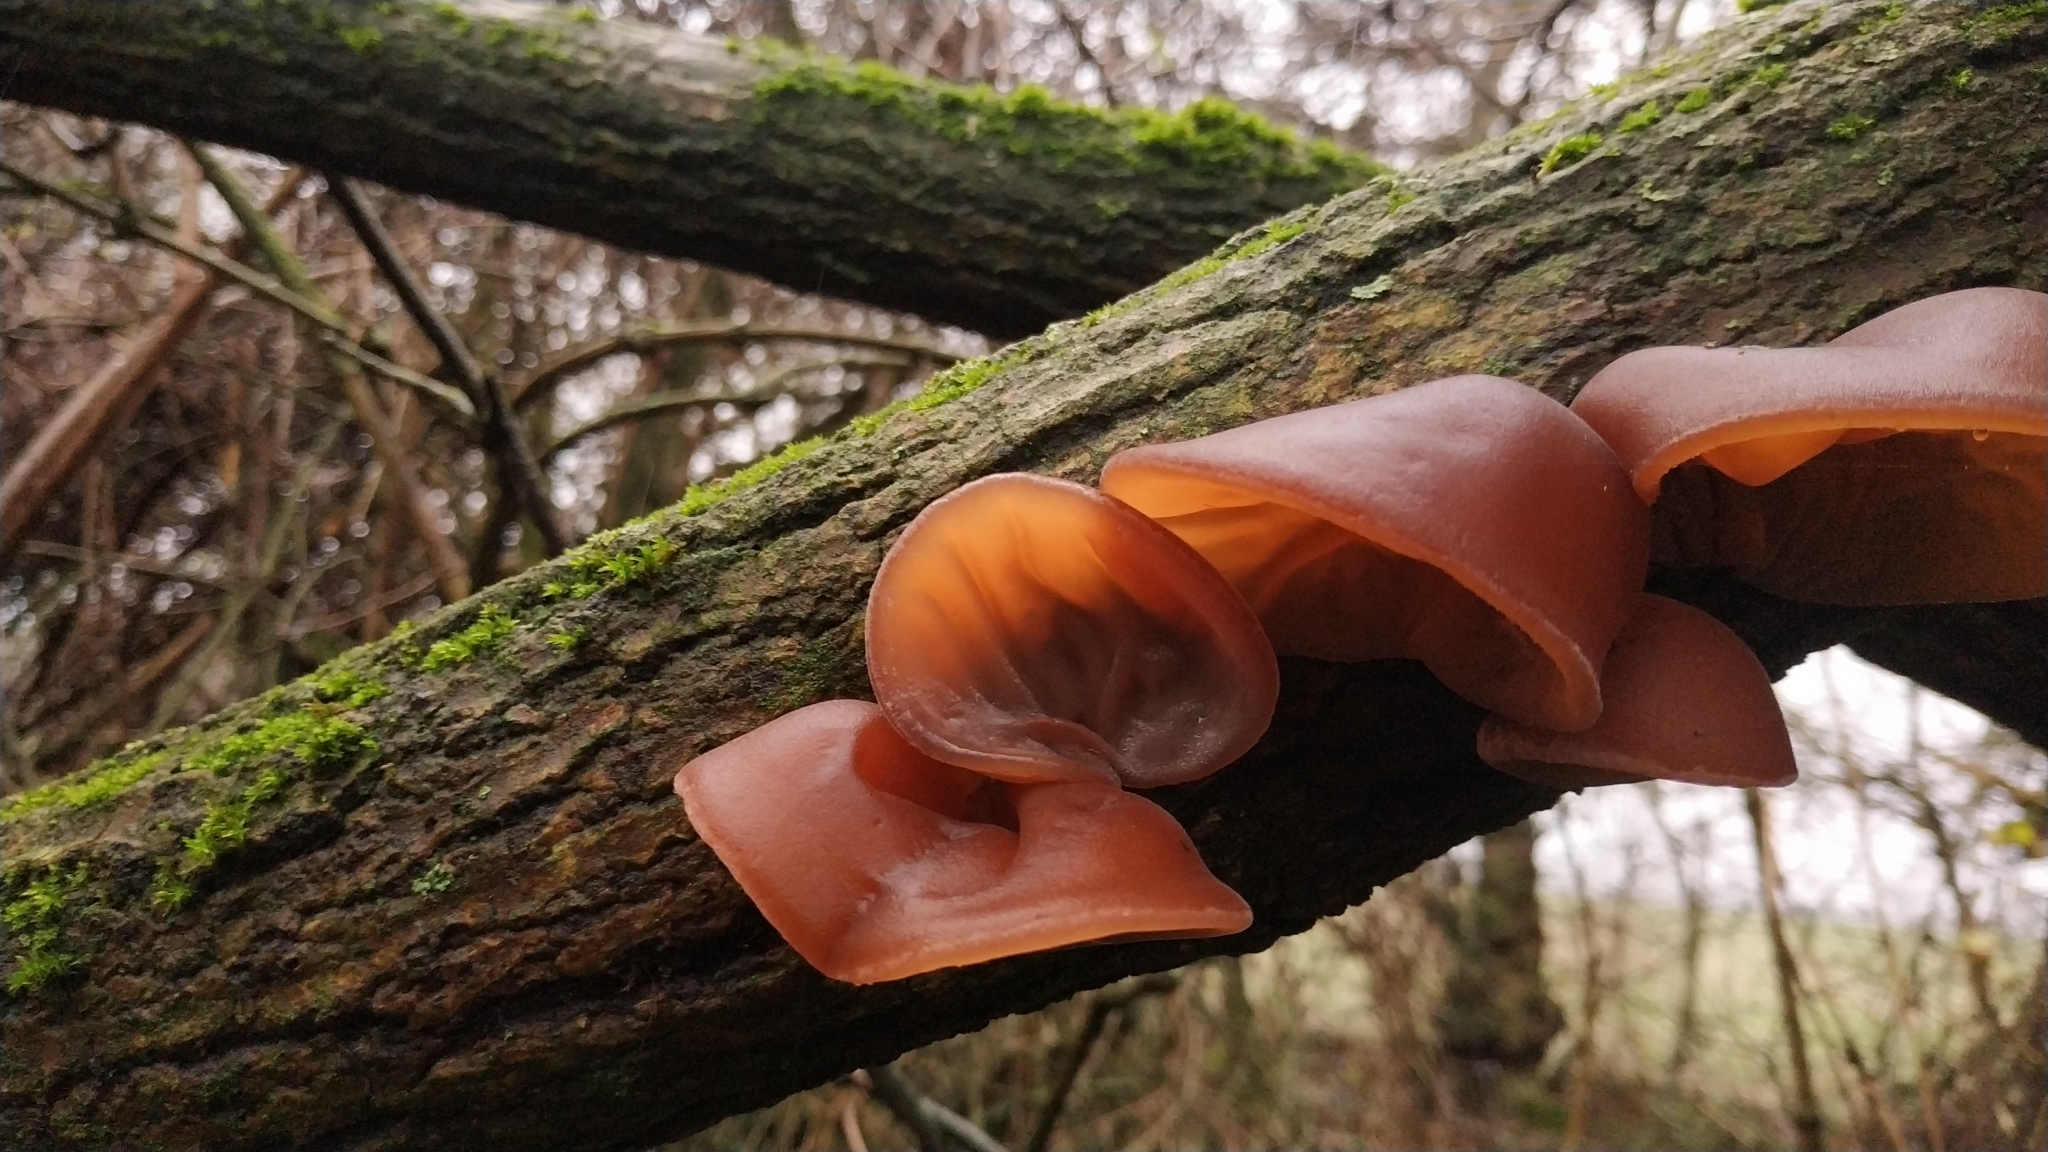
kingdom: Fungi
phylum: Basidiomycota
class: Agaricomycetes
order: Auriculariales
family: Auriculariaceae
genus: Auricularia
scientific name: Auricularia auricula-judae
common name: Jelly ear
